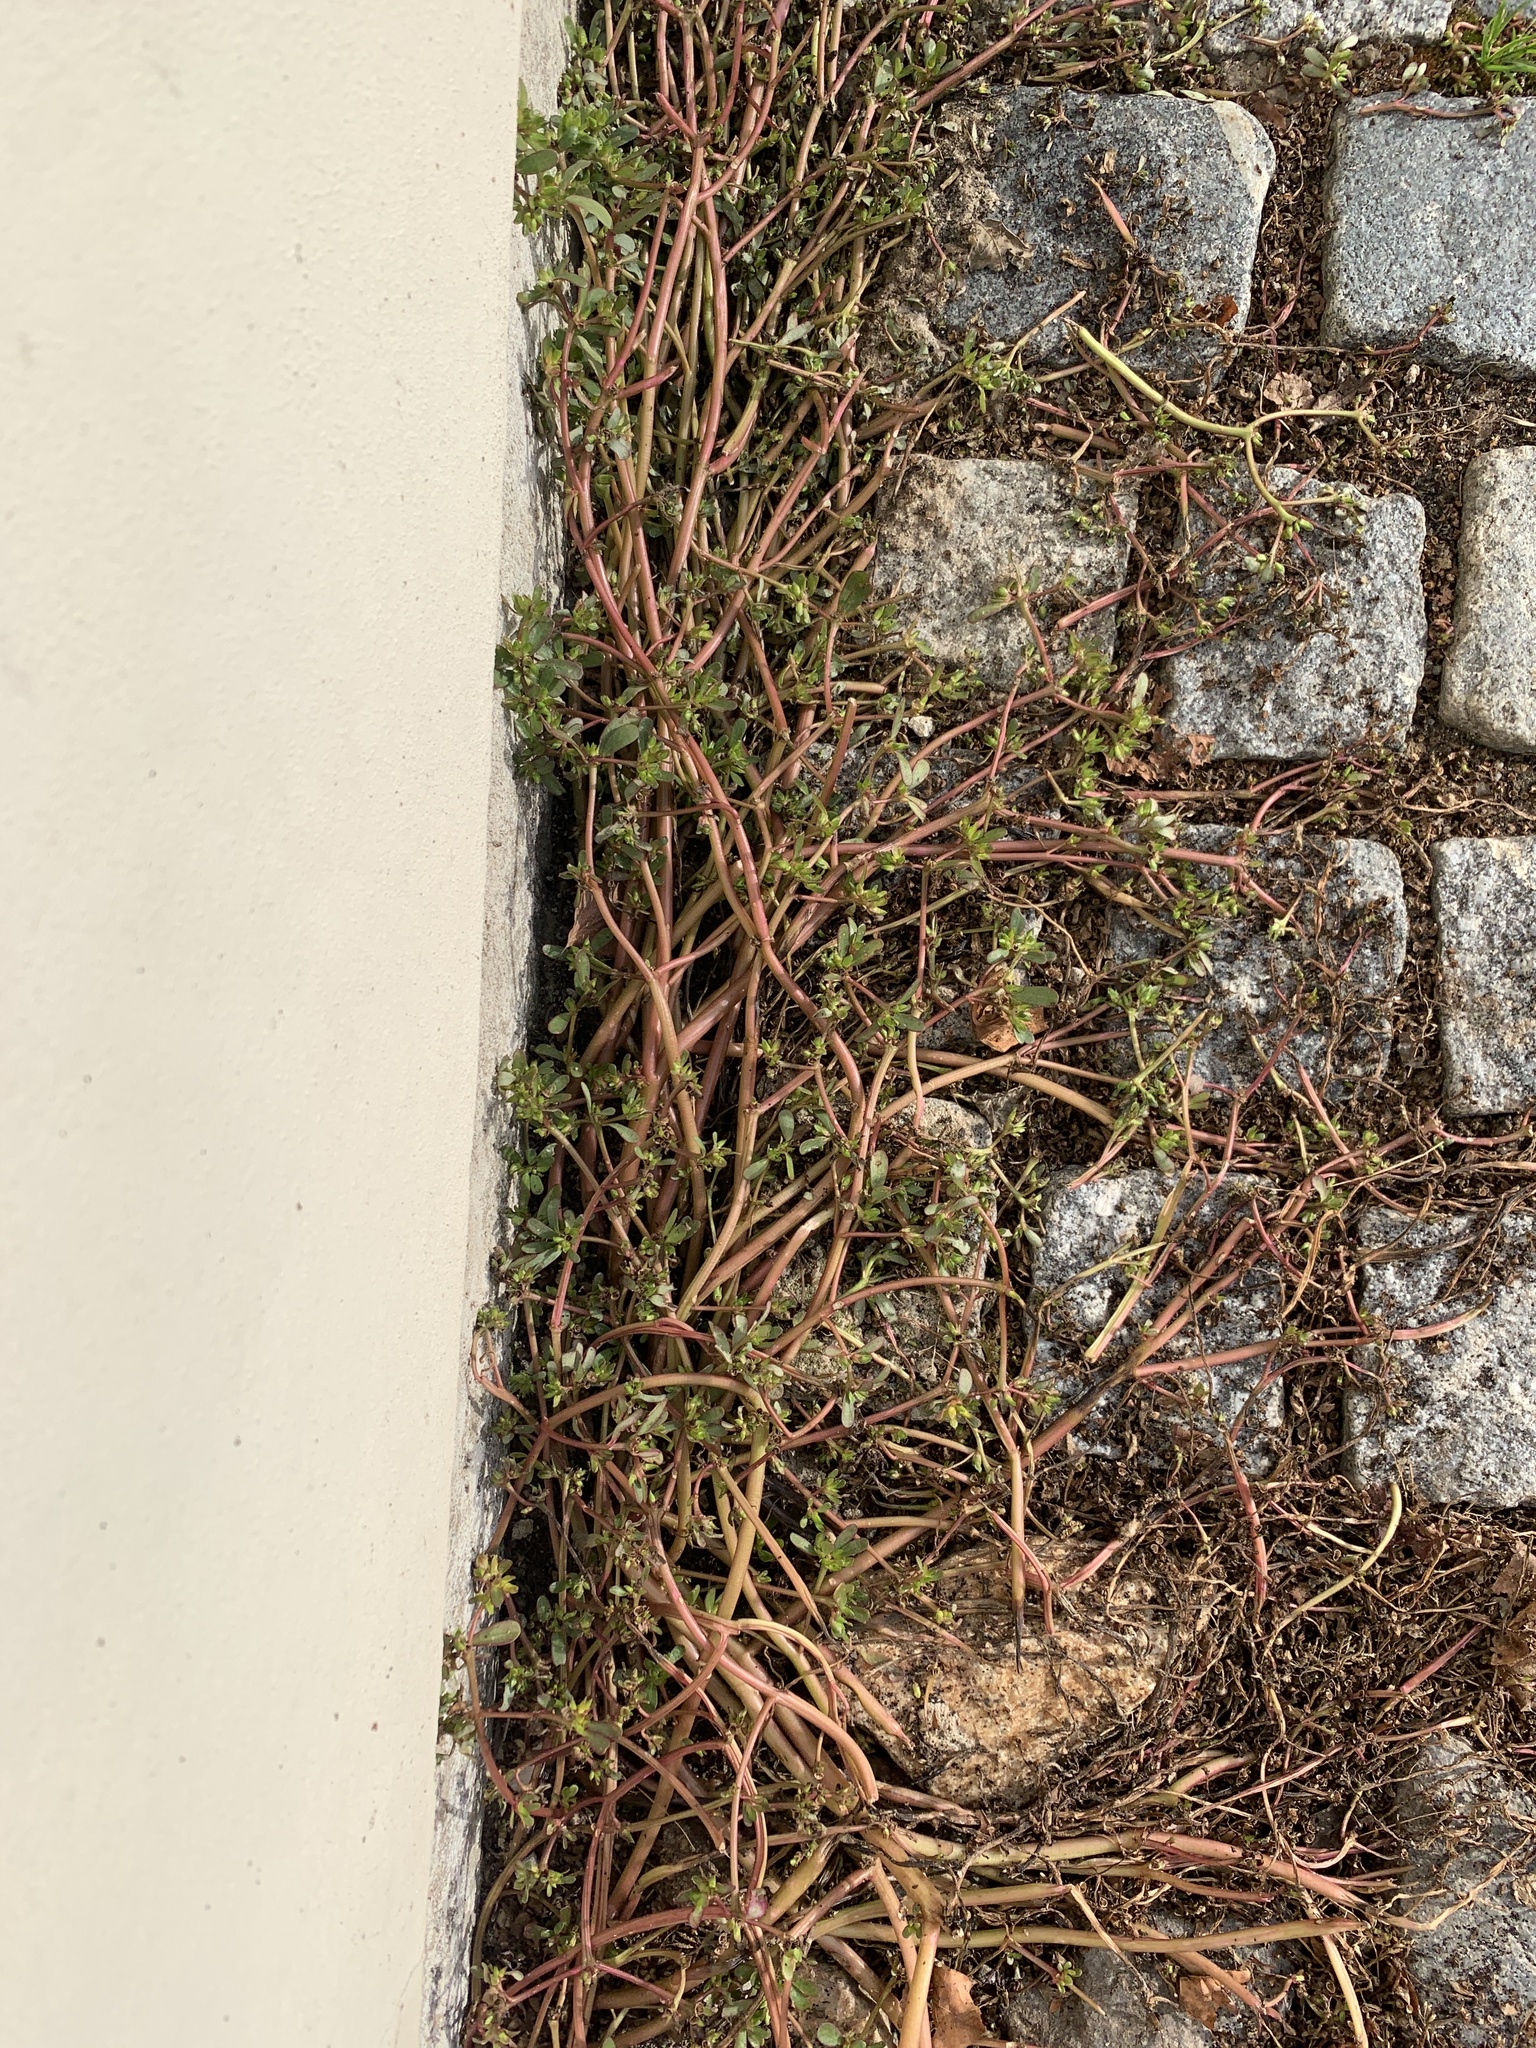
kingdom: Plantae
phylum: Tracheophyta
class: Magnoliopsida
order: Caryophyllales
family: Portulacaceae
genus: Portulaca
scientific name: Portulaca oleracea
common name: Common purslane
